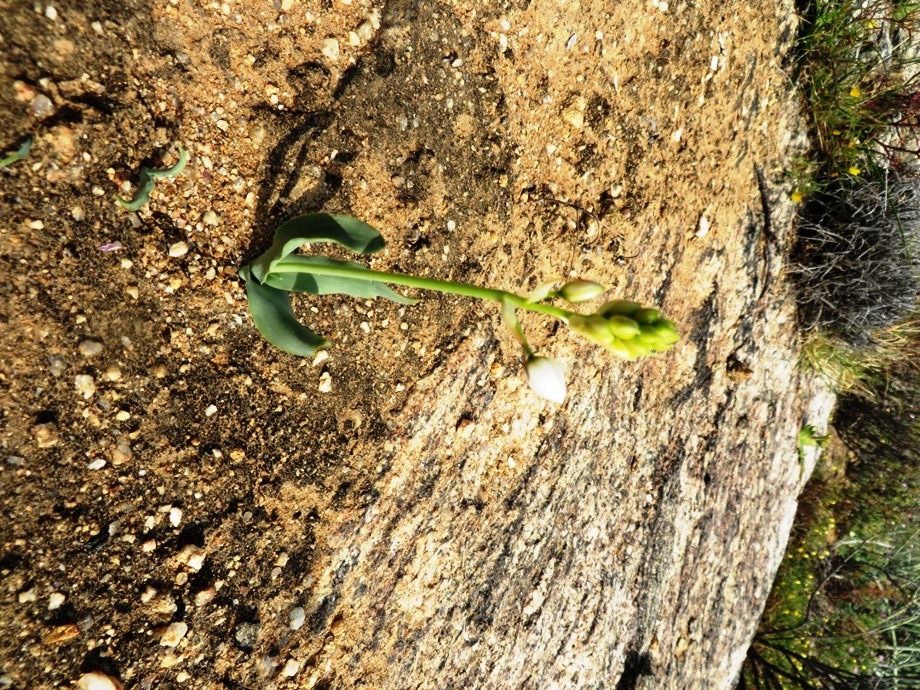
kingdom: Plantae
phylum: Tracheophyta
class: Liliopsida
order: Asparagales
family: Asparagaceae
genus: Ornithogalum
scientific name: Ornithogalum pruinosum
